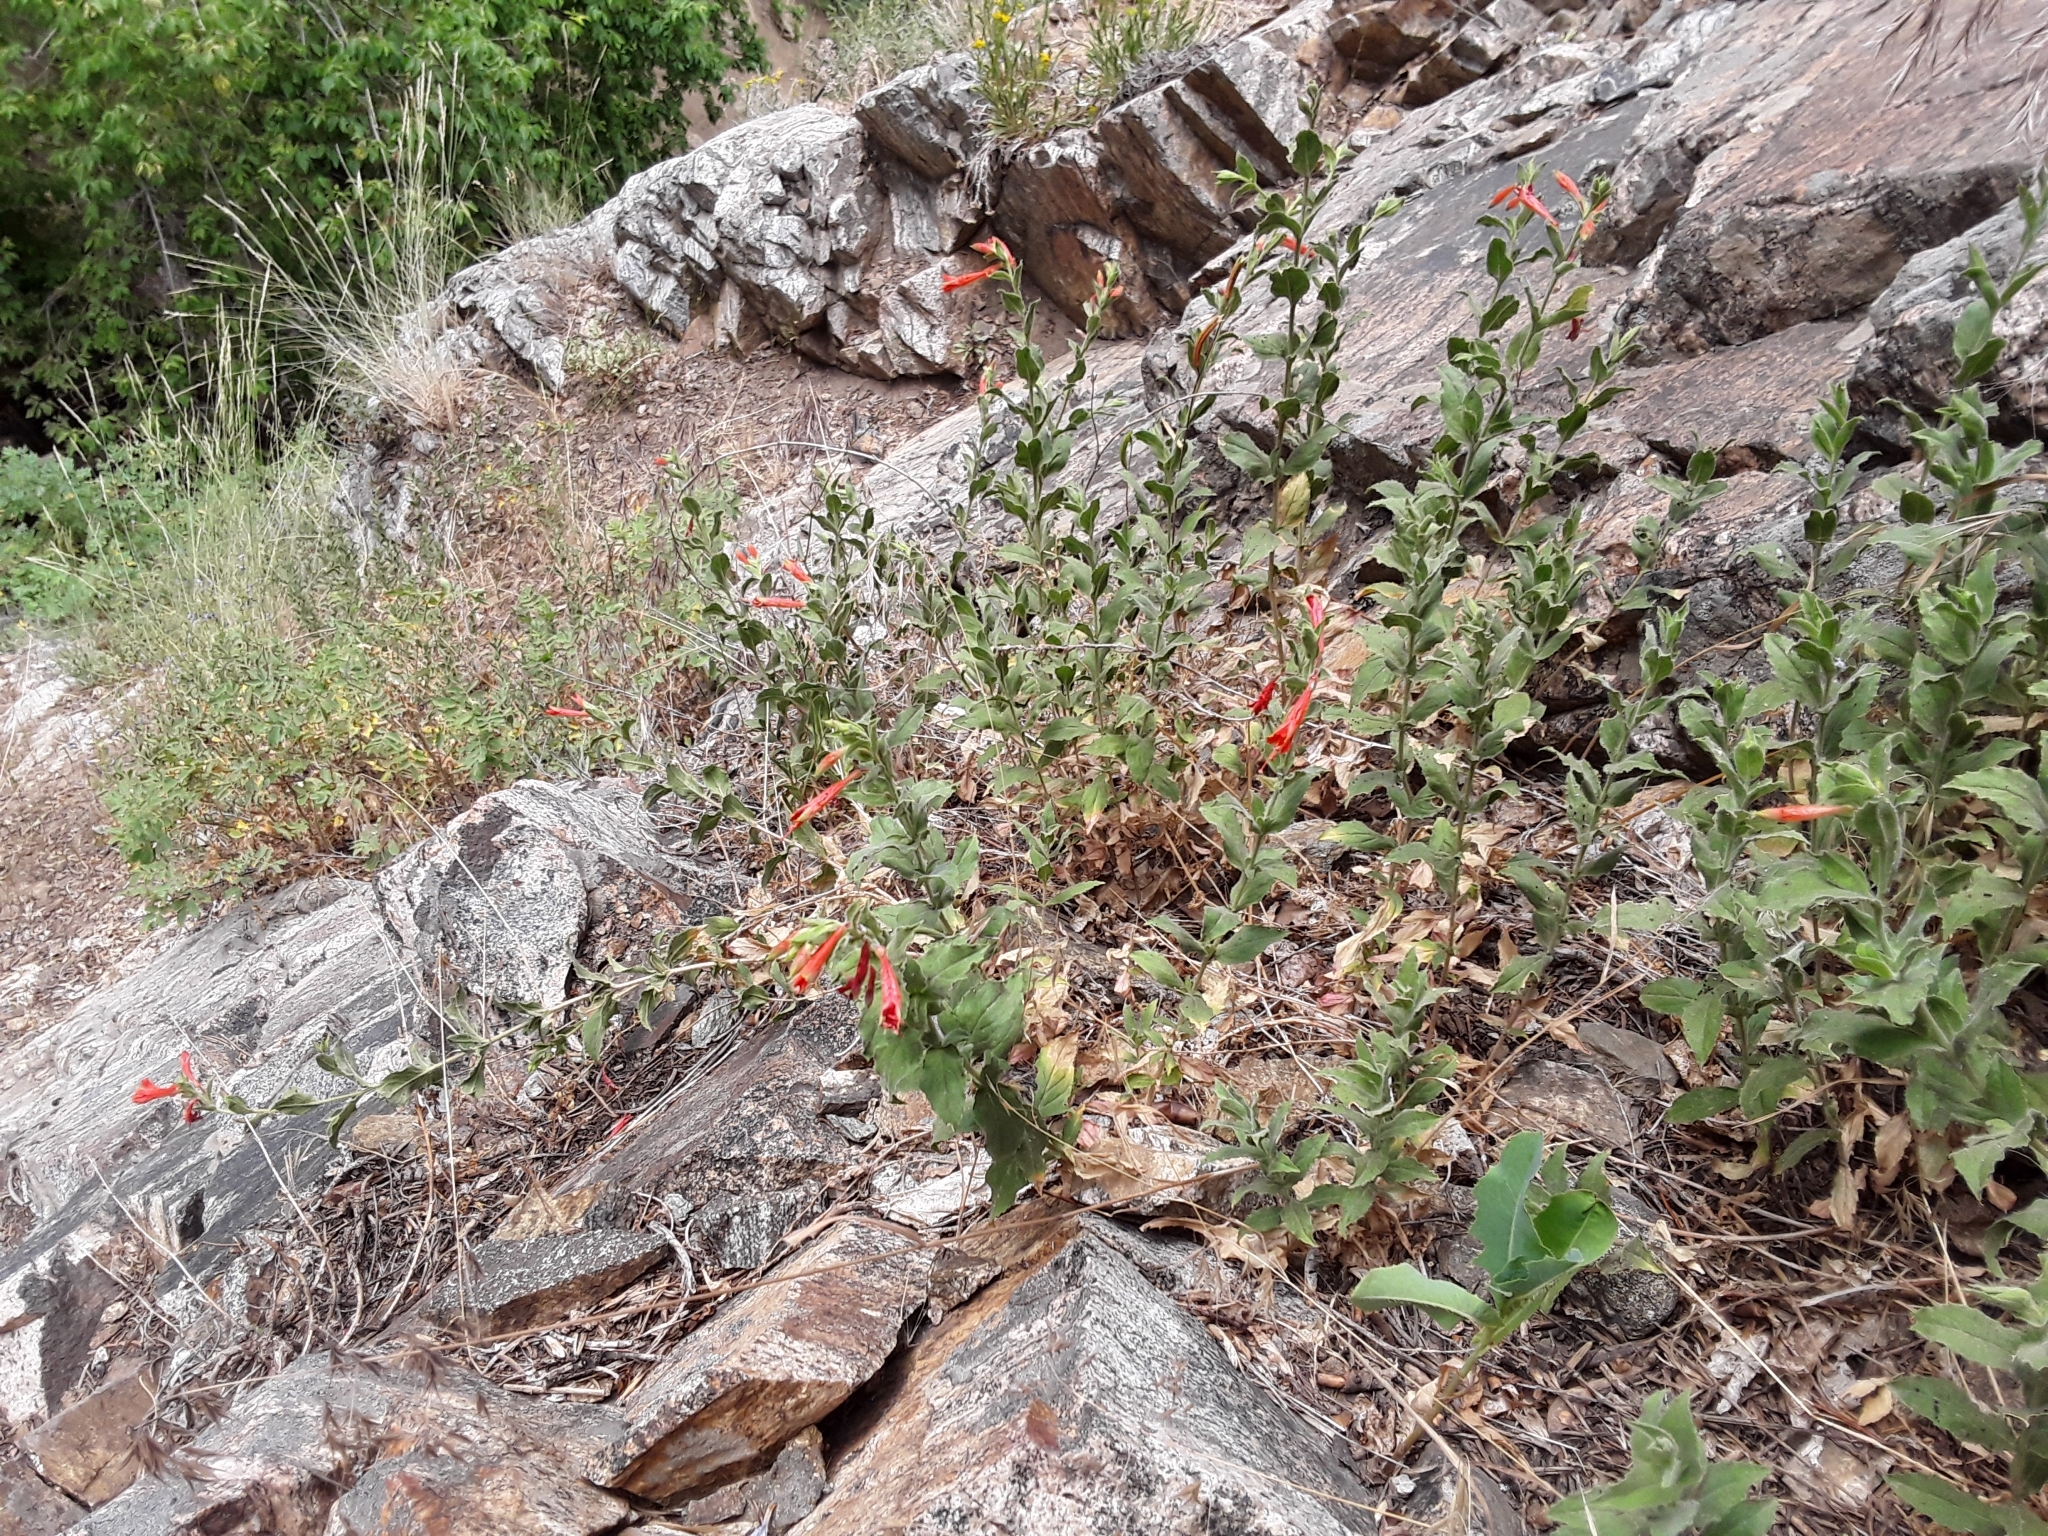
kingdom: Plantae
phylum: Tracheophyta
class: Magnoliopsida
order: Myrtales
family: Onagraceae
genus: Epilobium
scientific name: Epilobium canum
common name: California-fuchsia
